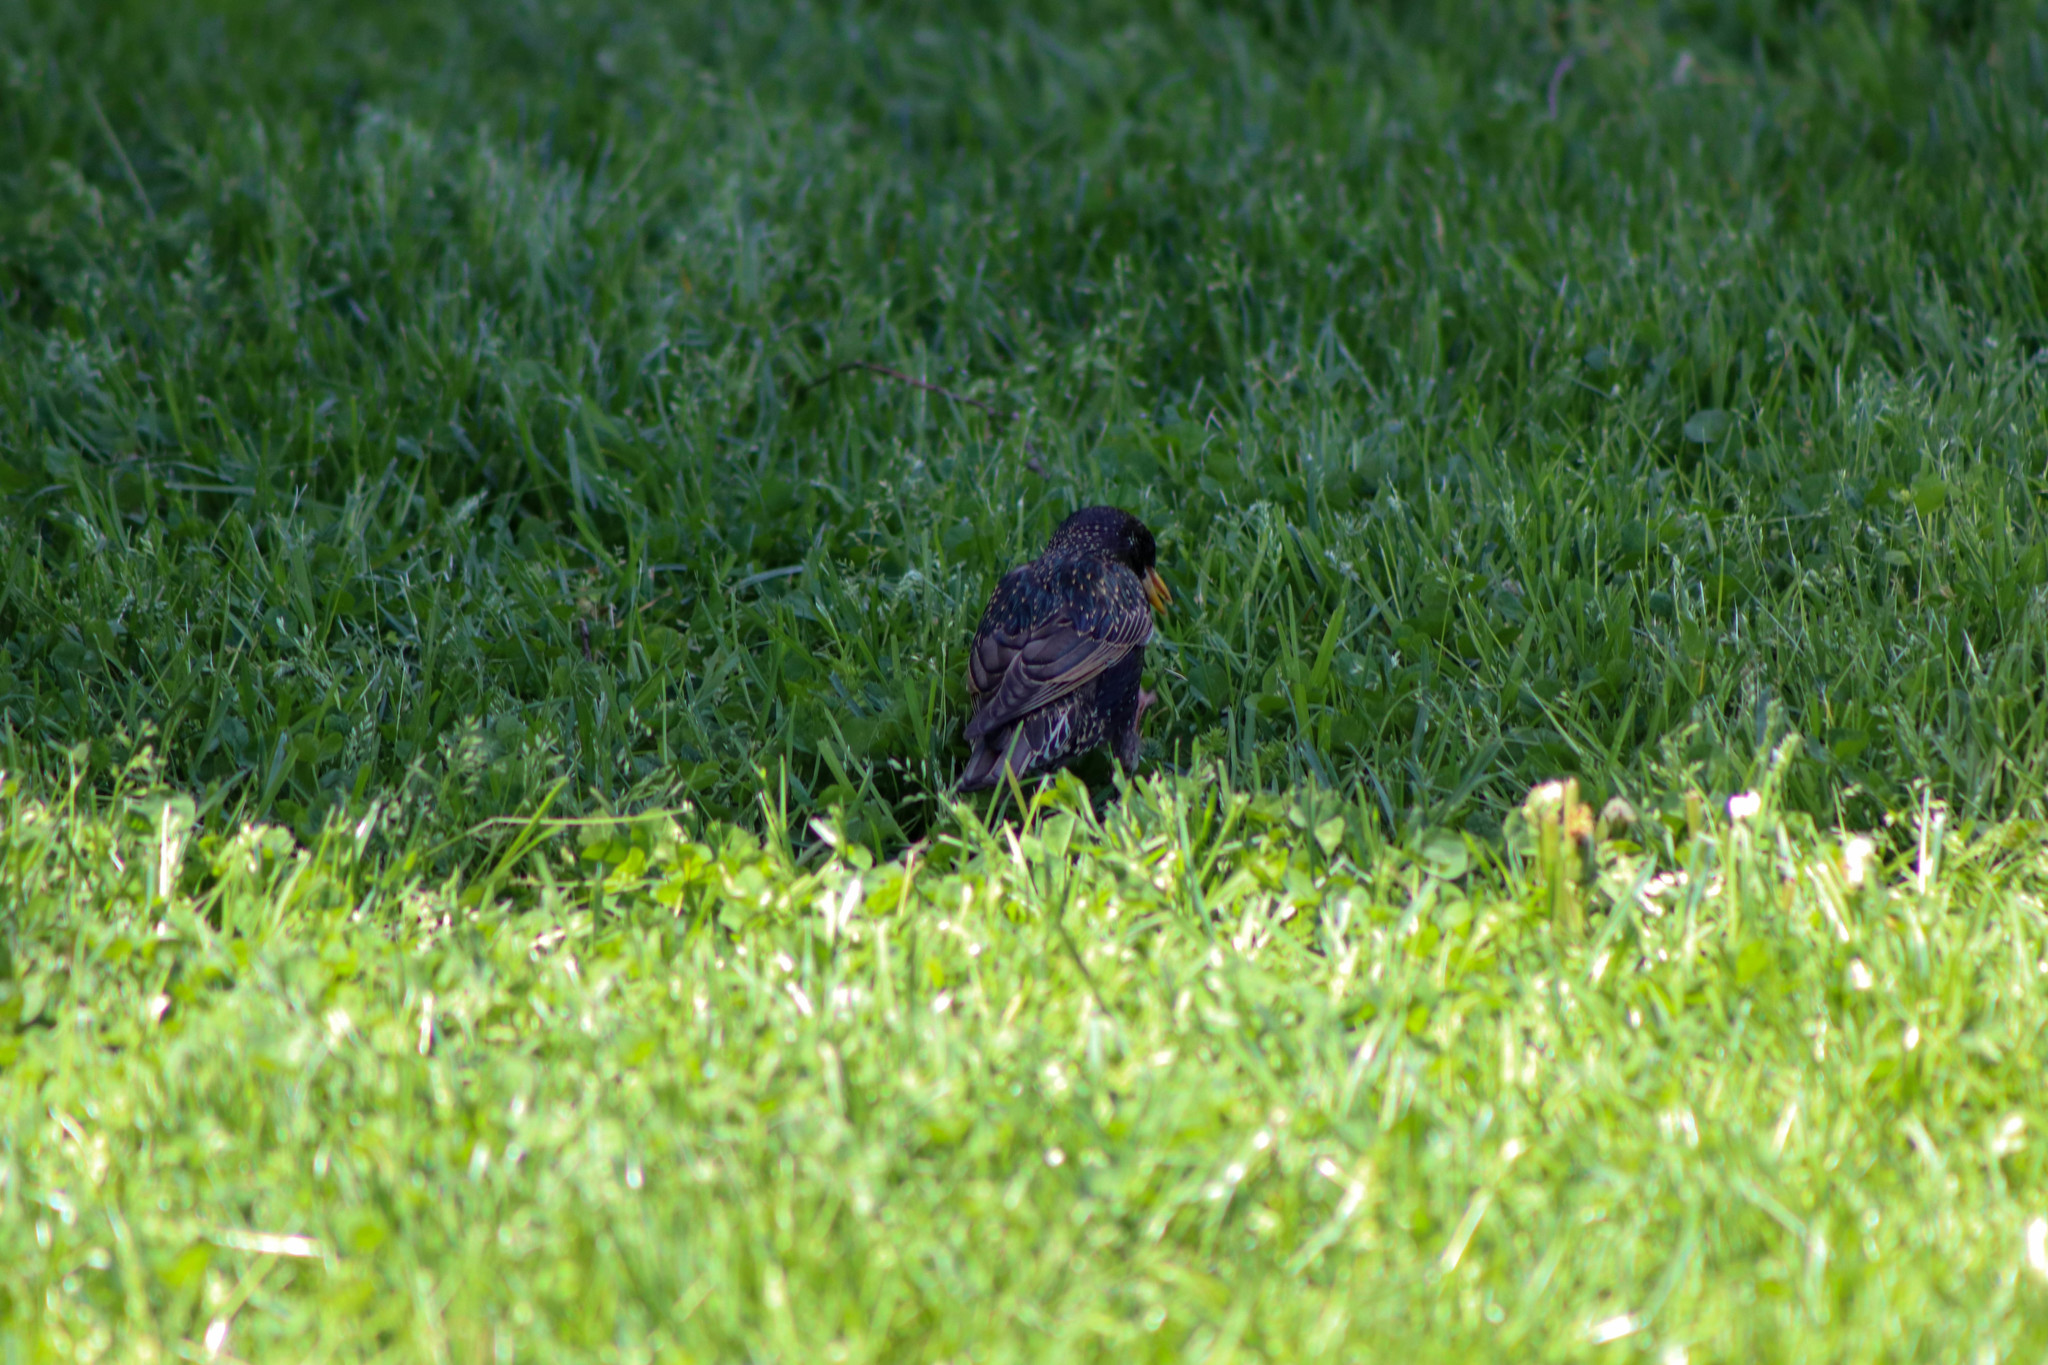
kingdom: Animalia
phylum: Chordata
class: Aves
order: Passeriformes
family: Sturnidae
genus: Sturnus
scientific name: Sturnus vulgaris
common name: Common starling
